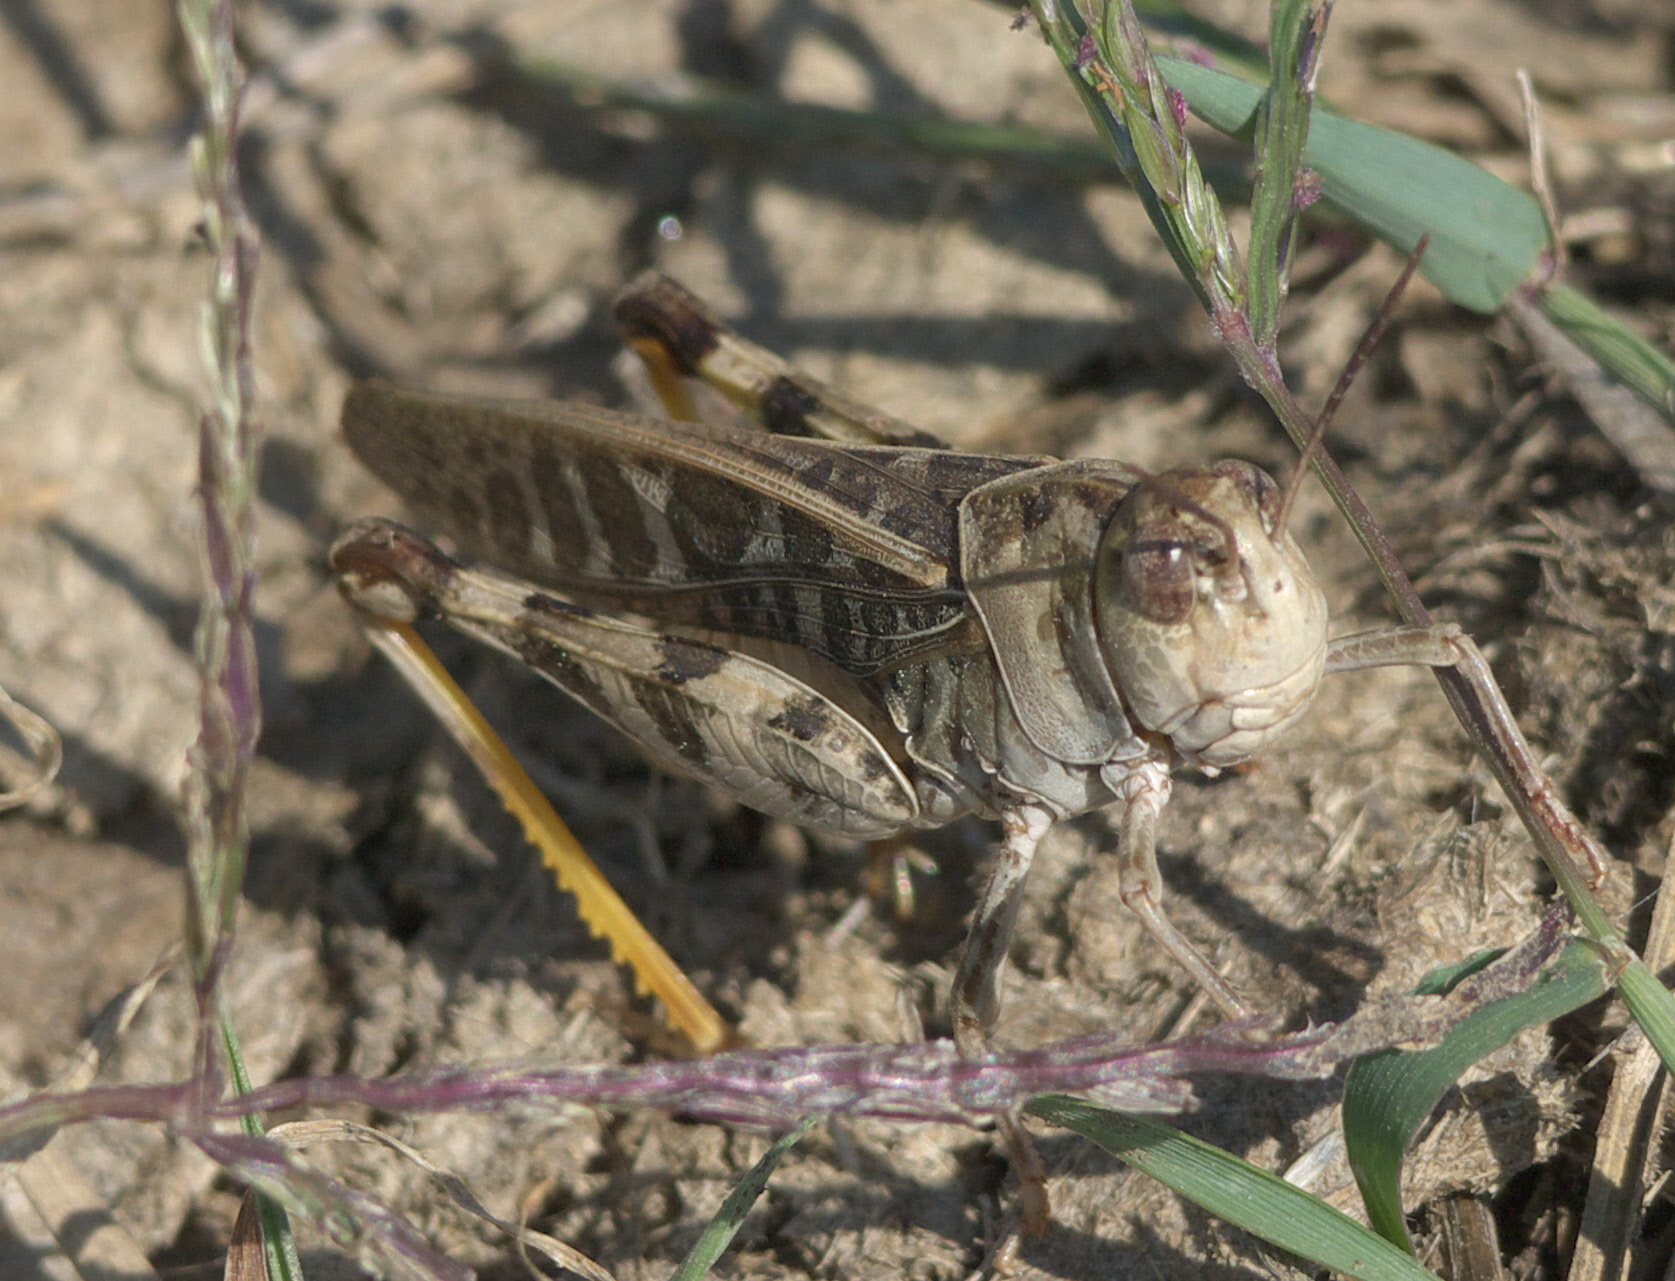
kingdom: Animalia
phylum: Arthropoda
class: Insecta
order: Orthoptera
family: Acrididae
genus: Hippiscus
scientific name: Hippiscus ocelote
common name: Wrinkled grasshopper
